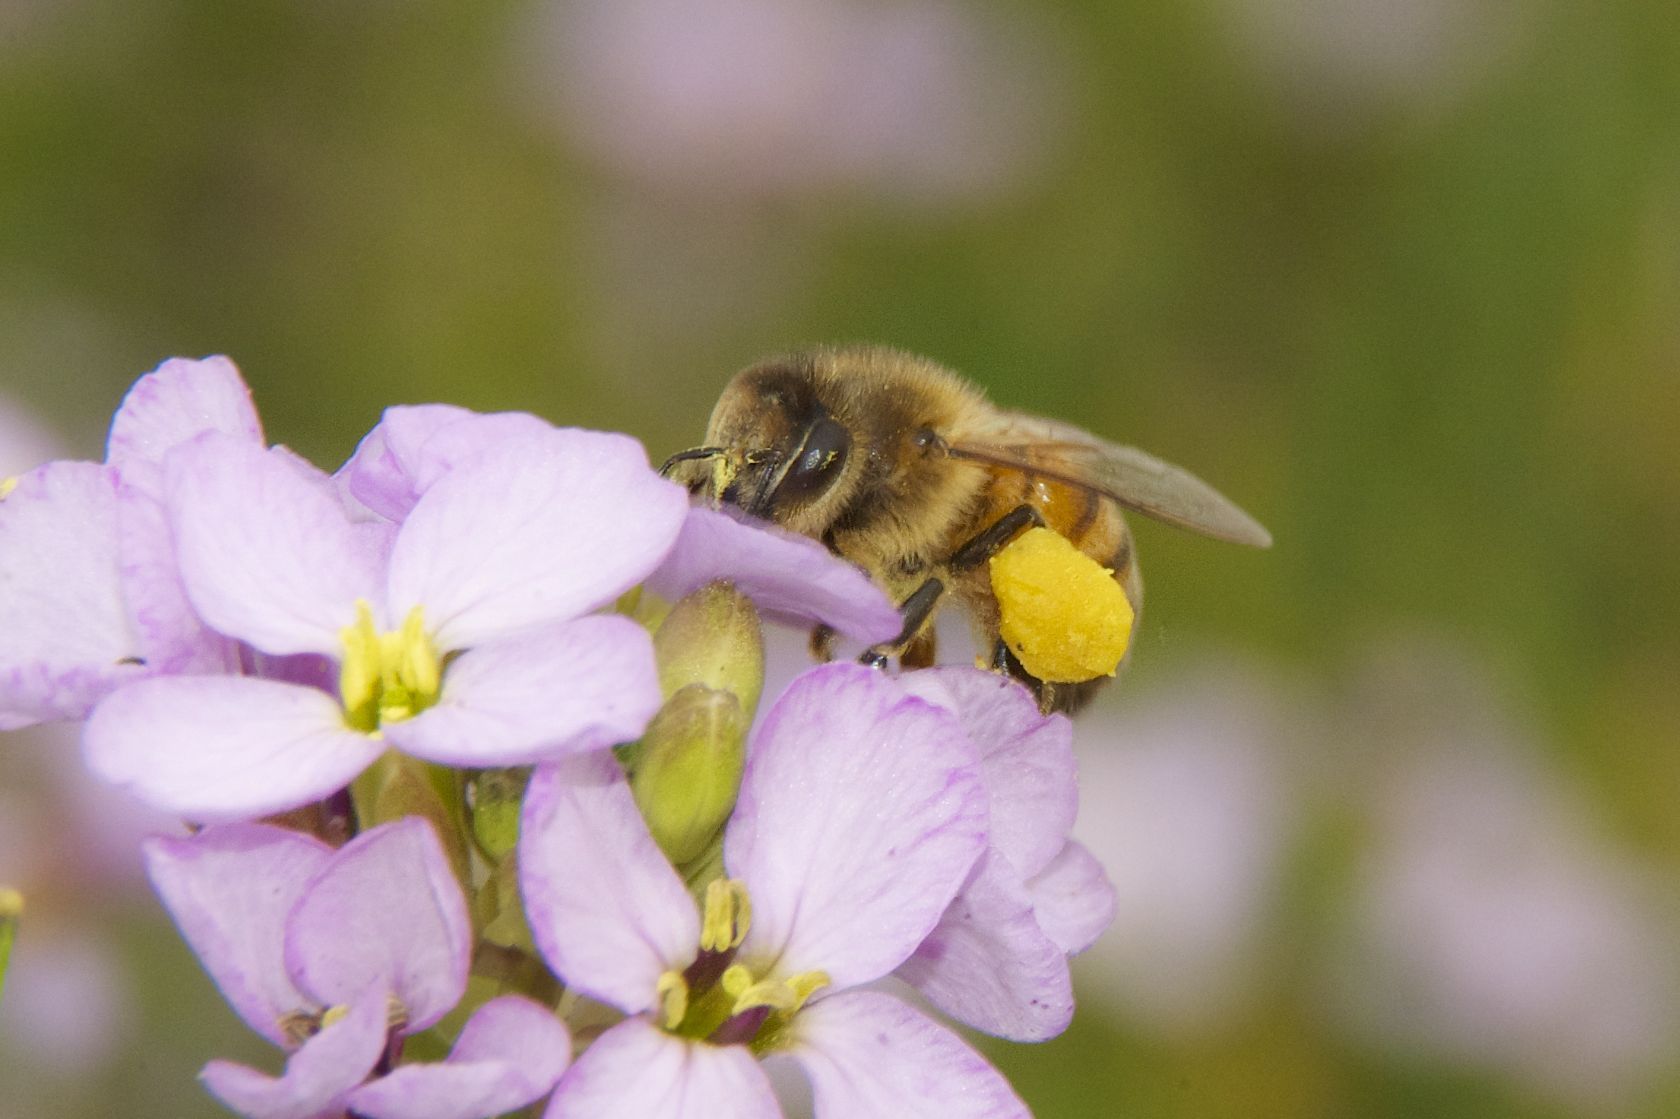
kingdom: Animalia
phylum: Arthropoda
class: Insecta
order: Hymenoptera
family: Apidae
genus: Apis
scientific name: Apis mellifera
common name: Honey bee
